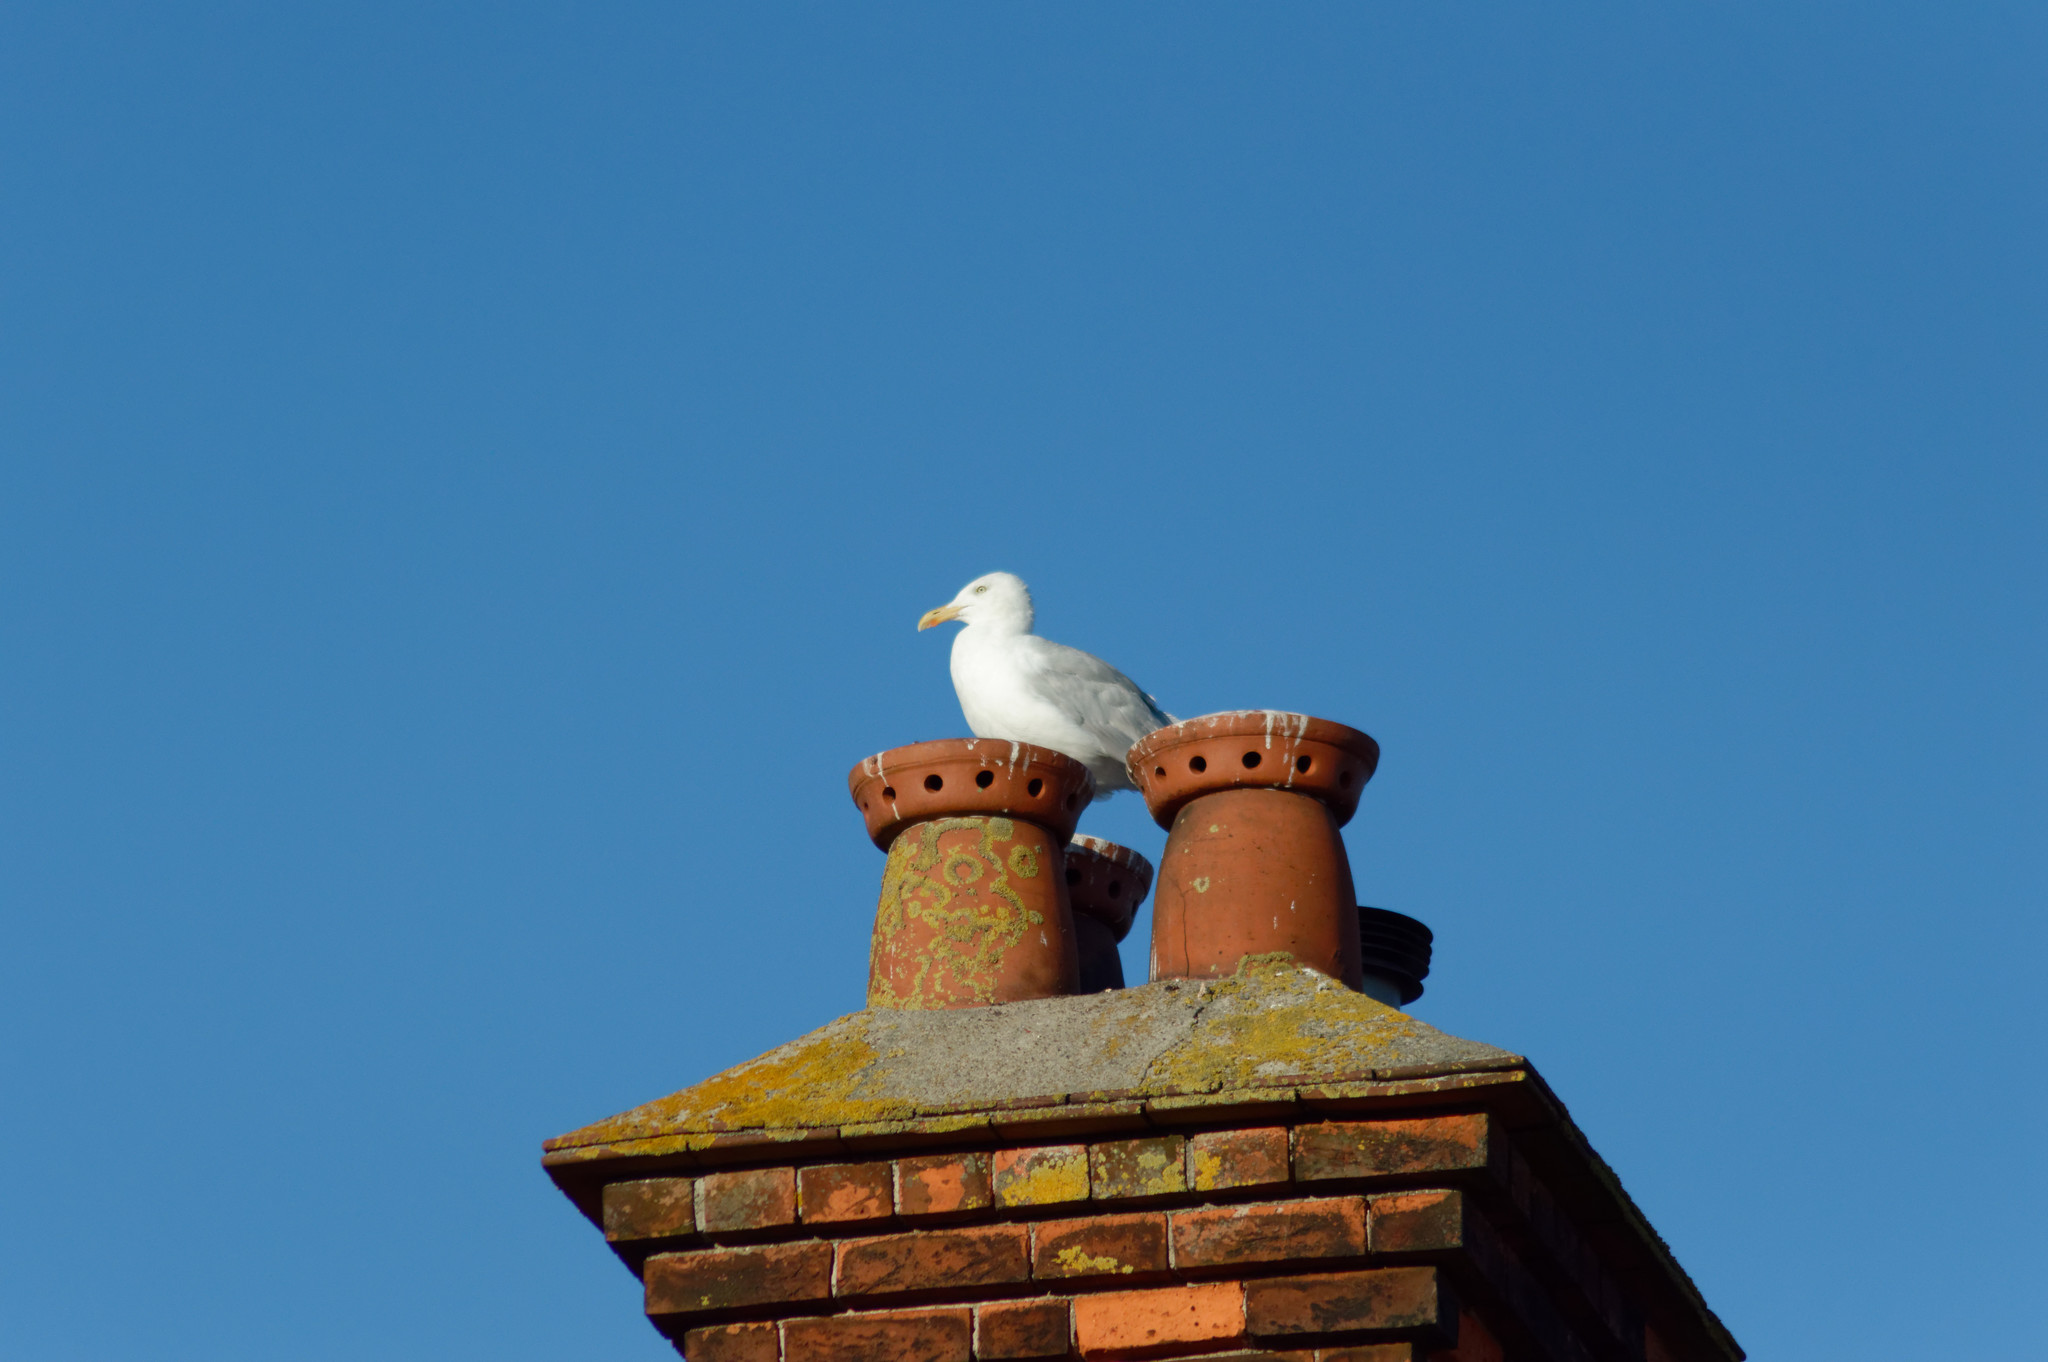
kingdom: Animalia
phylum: Chordata
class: Aves
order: Charadriiformes
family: Laridae
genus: Larus
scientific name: Larus argentatus
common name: Herring gull
